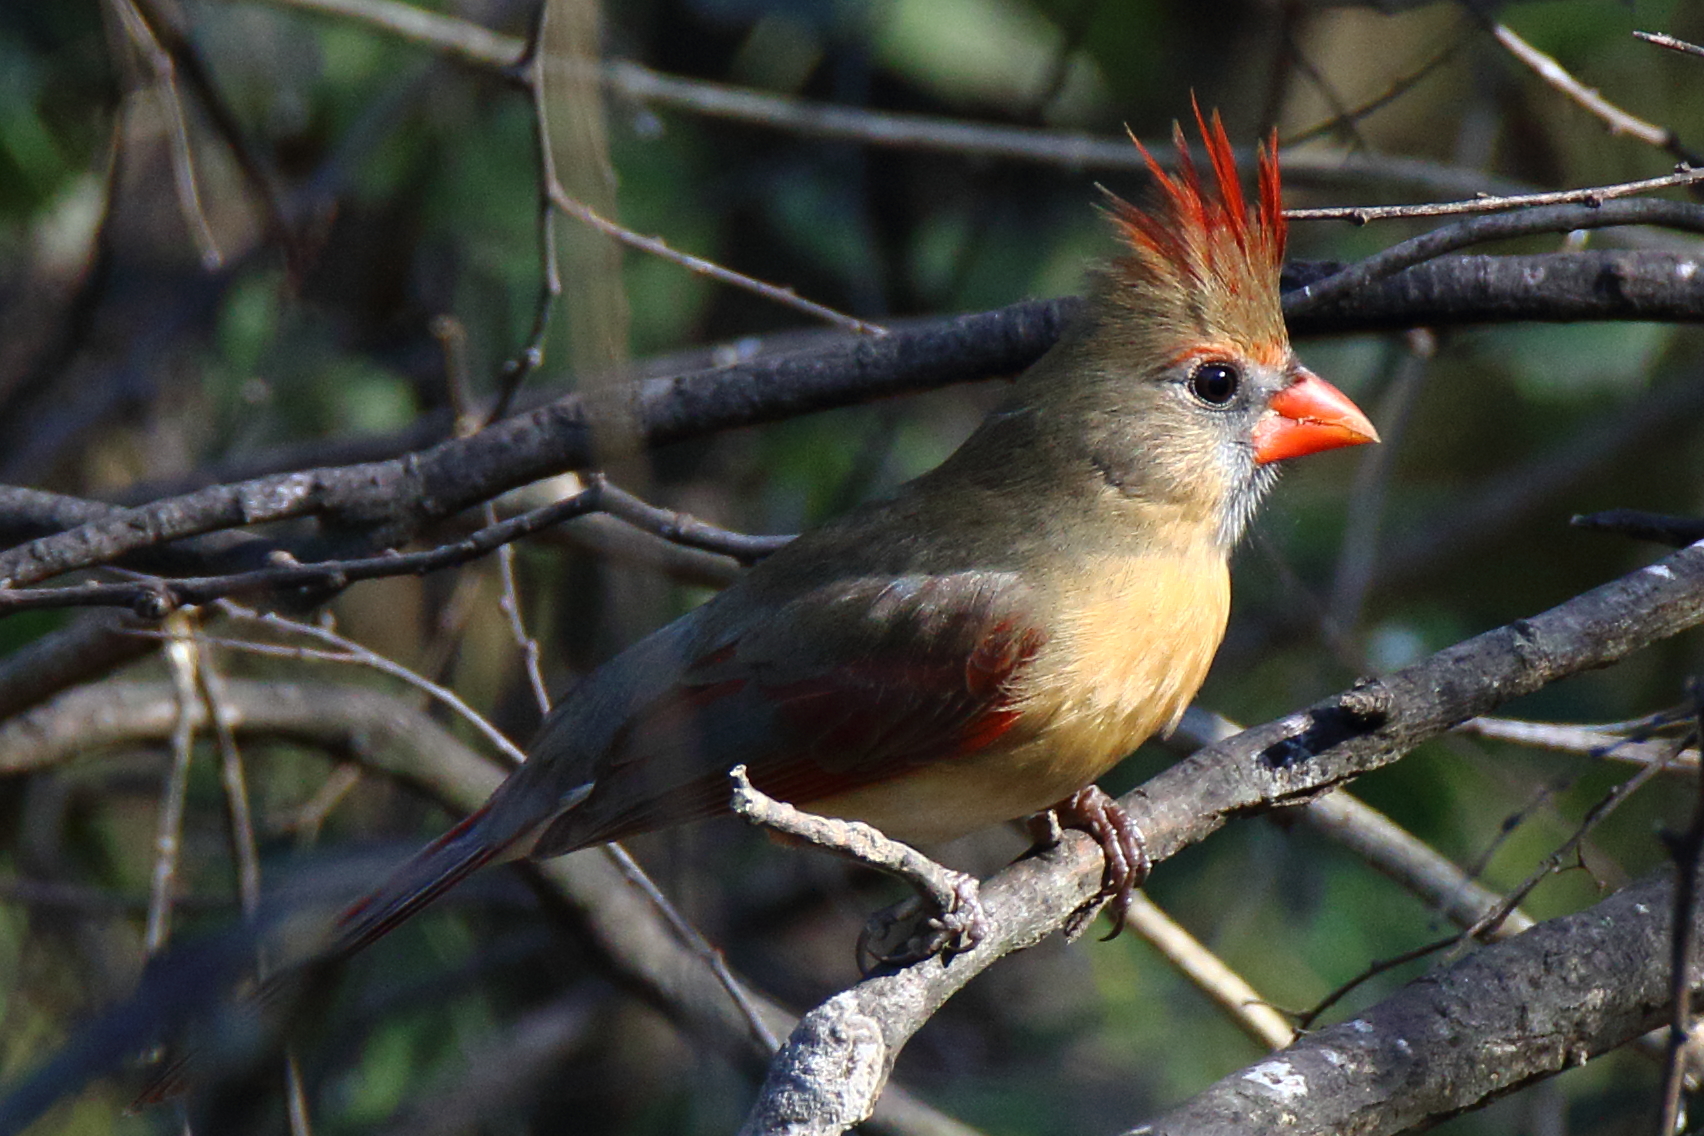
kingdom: Animalia
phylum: Chordata
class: Aves
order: Passeriformes
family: Cardinalidae
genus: Cardinalis
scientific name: Cardinalis cardinalis
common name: Northern cardinal
